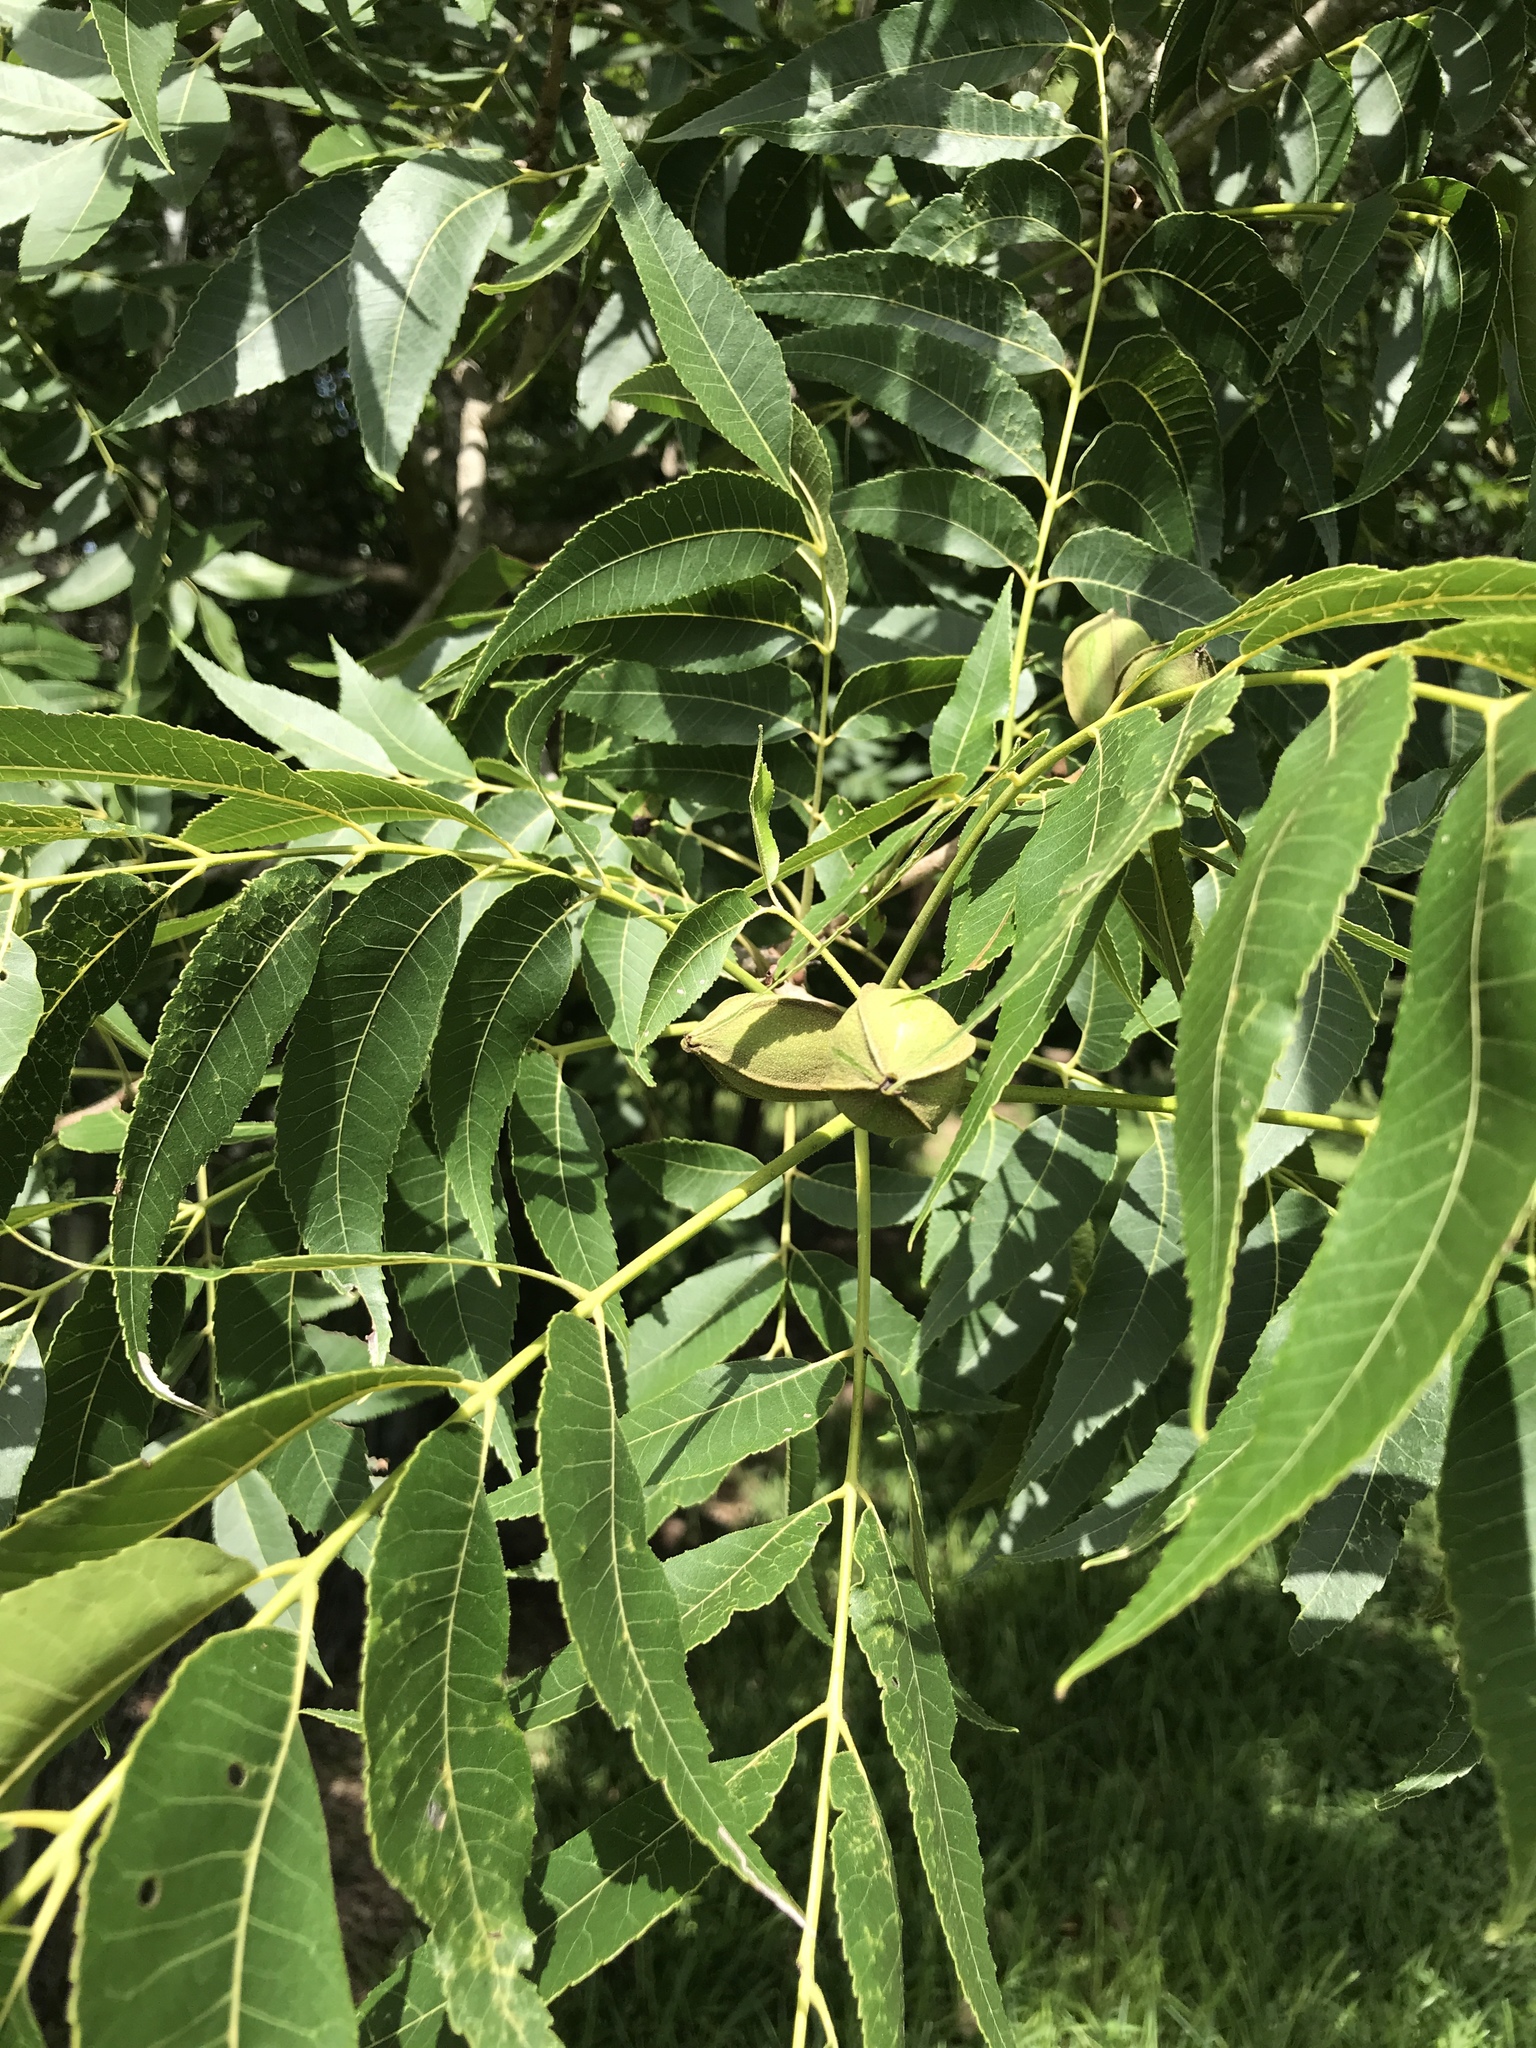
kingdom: Plantae
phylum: Tracheophyta
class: Magnoliopsida
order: Fagales
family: Juglandaceae
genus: Carya
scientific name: Carya illinoinensis
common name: Pecan
